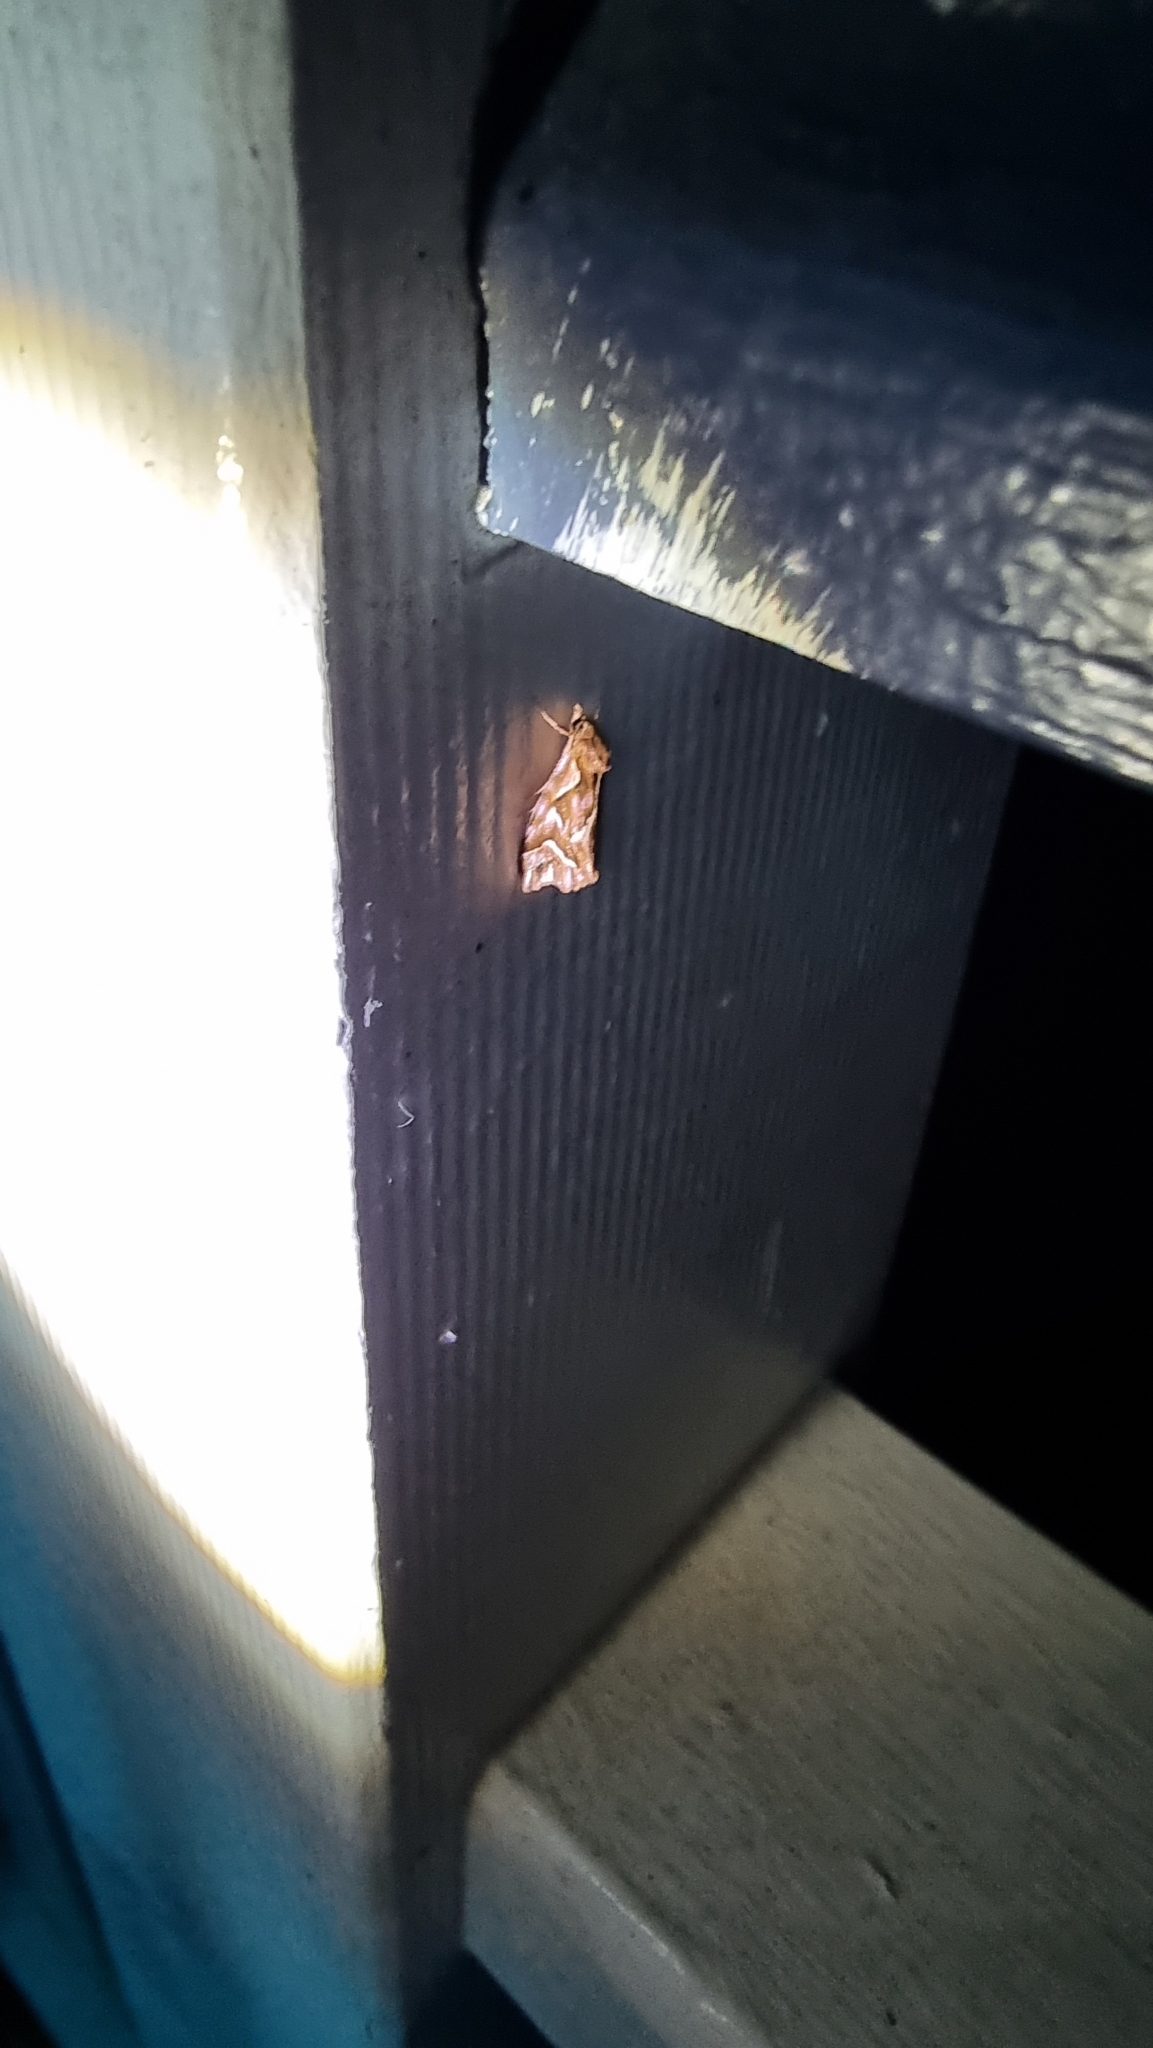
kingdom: Animalia
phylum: Arthropoda
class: Insecta
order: Lepidoptera
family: Noctuidae
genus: Clytoscopa
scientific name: Clytoscopa iorrhoda
